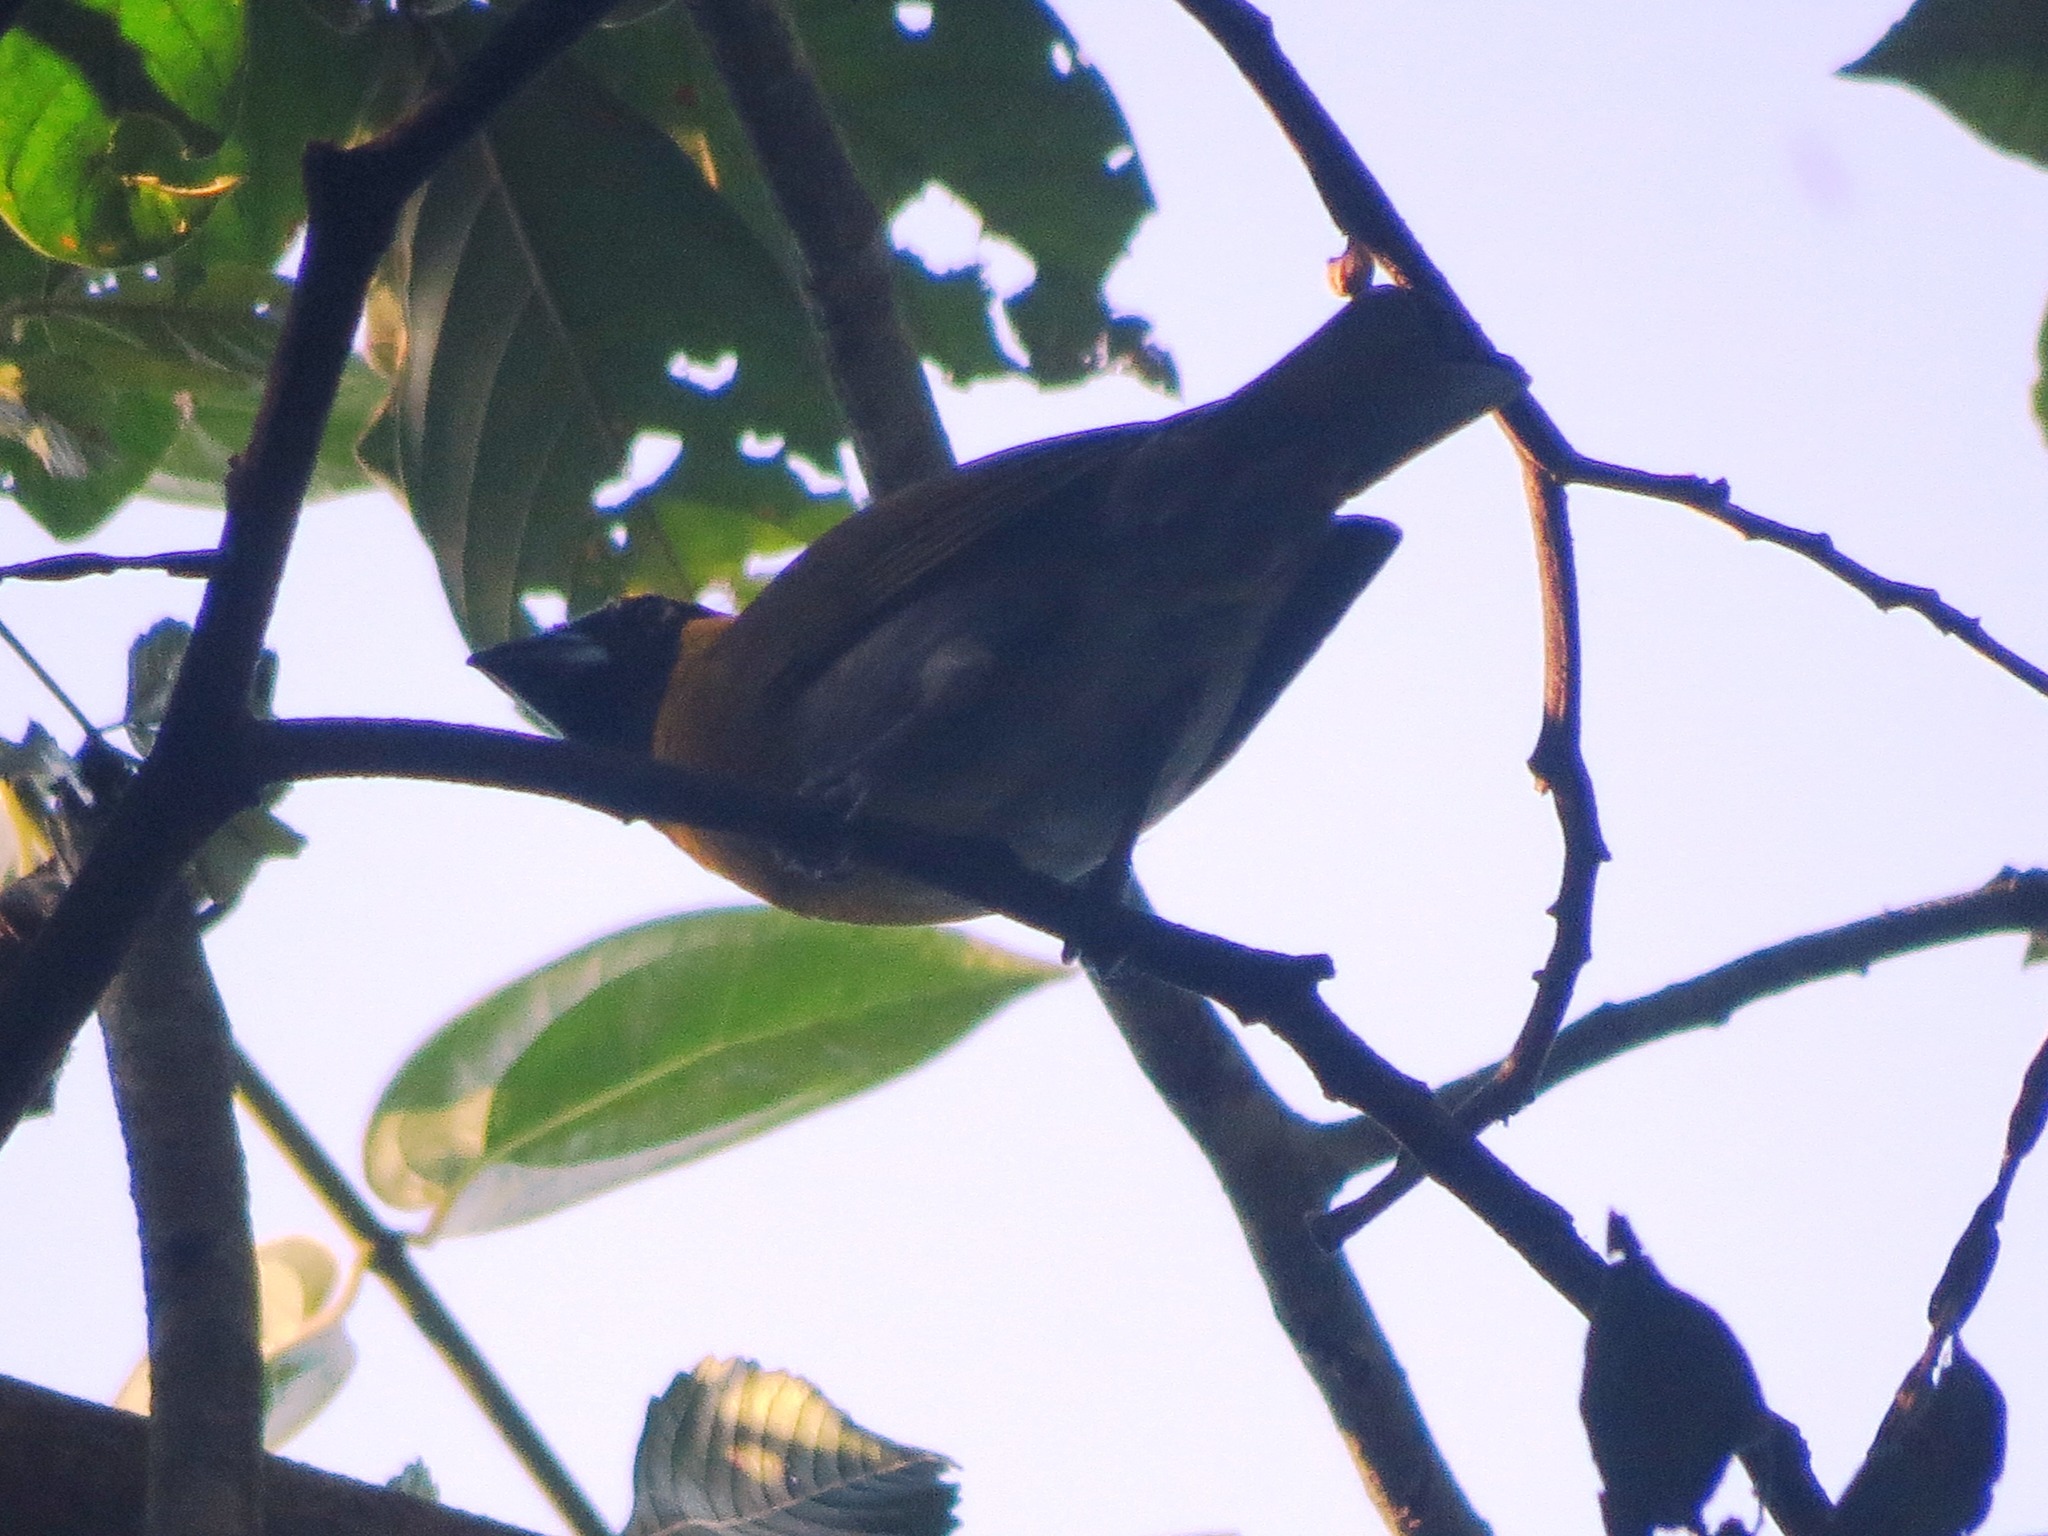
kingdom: Animalia
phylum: Chordata
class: Aves
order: Passeriformes
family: Cardinalidae
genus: Caryothraustes
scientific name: Caryothraustes poliogaster
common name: Black-faced grosbeak
